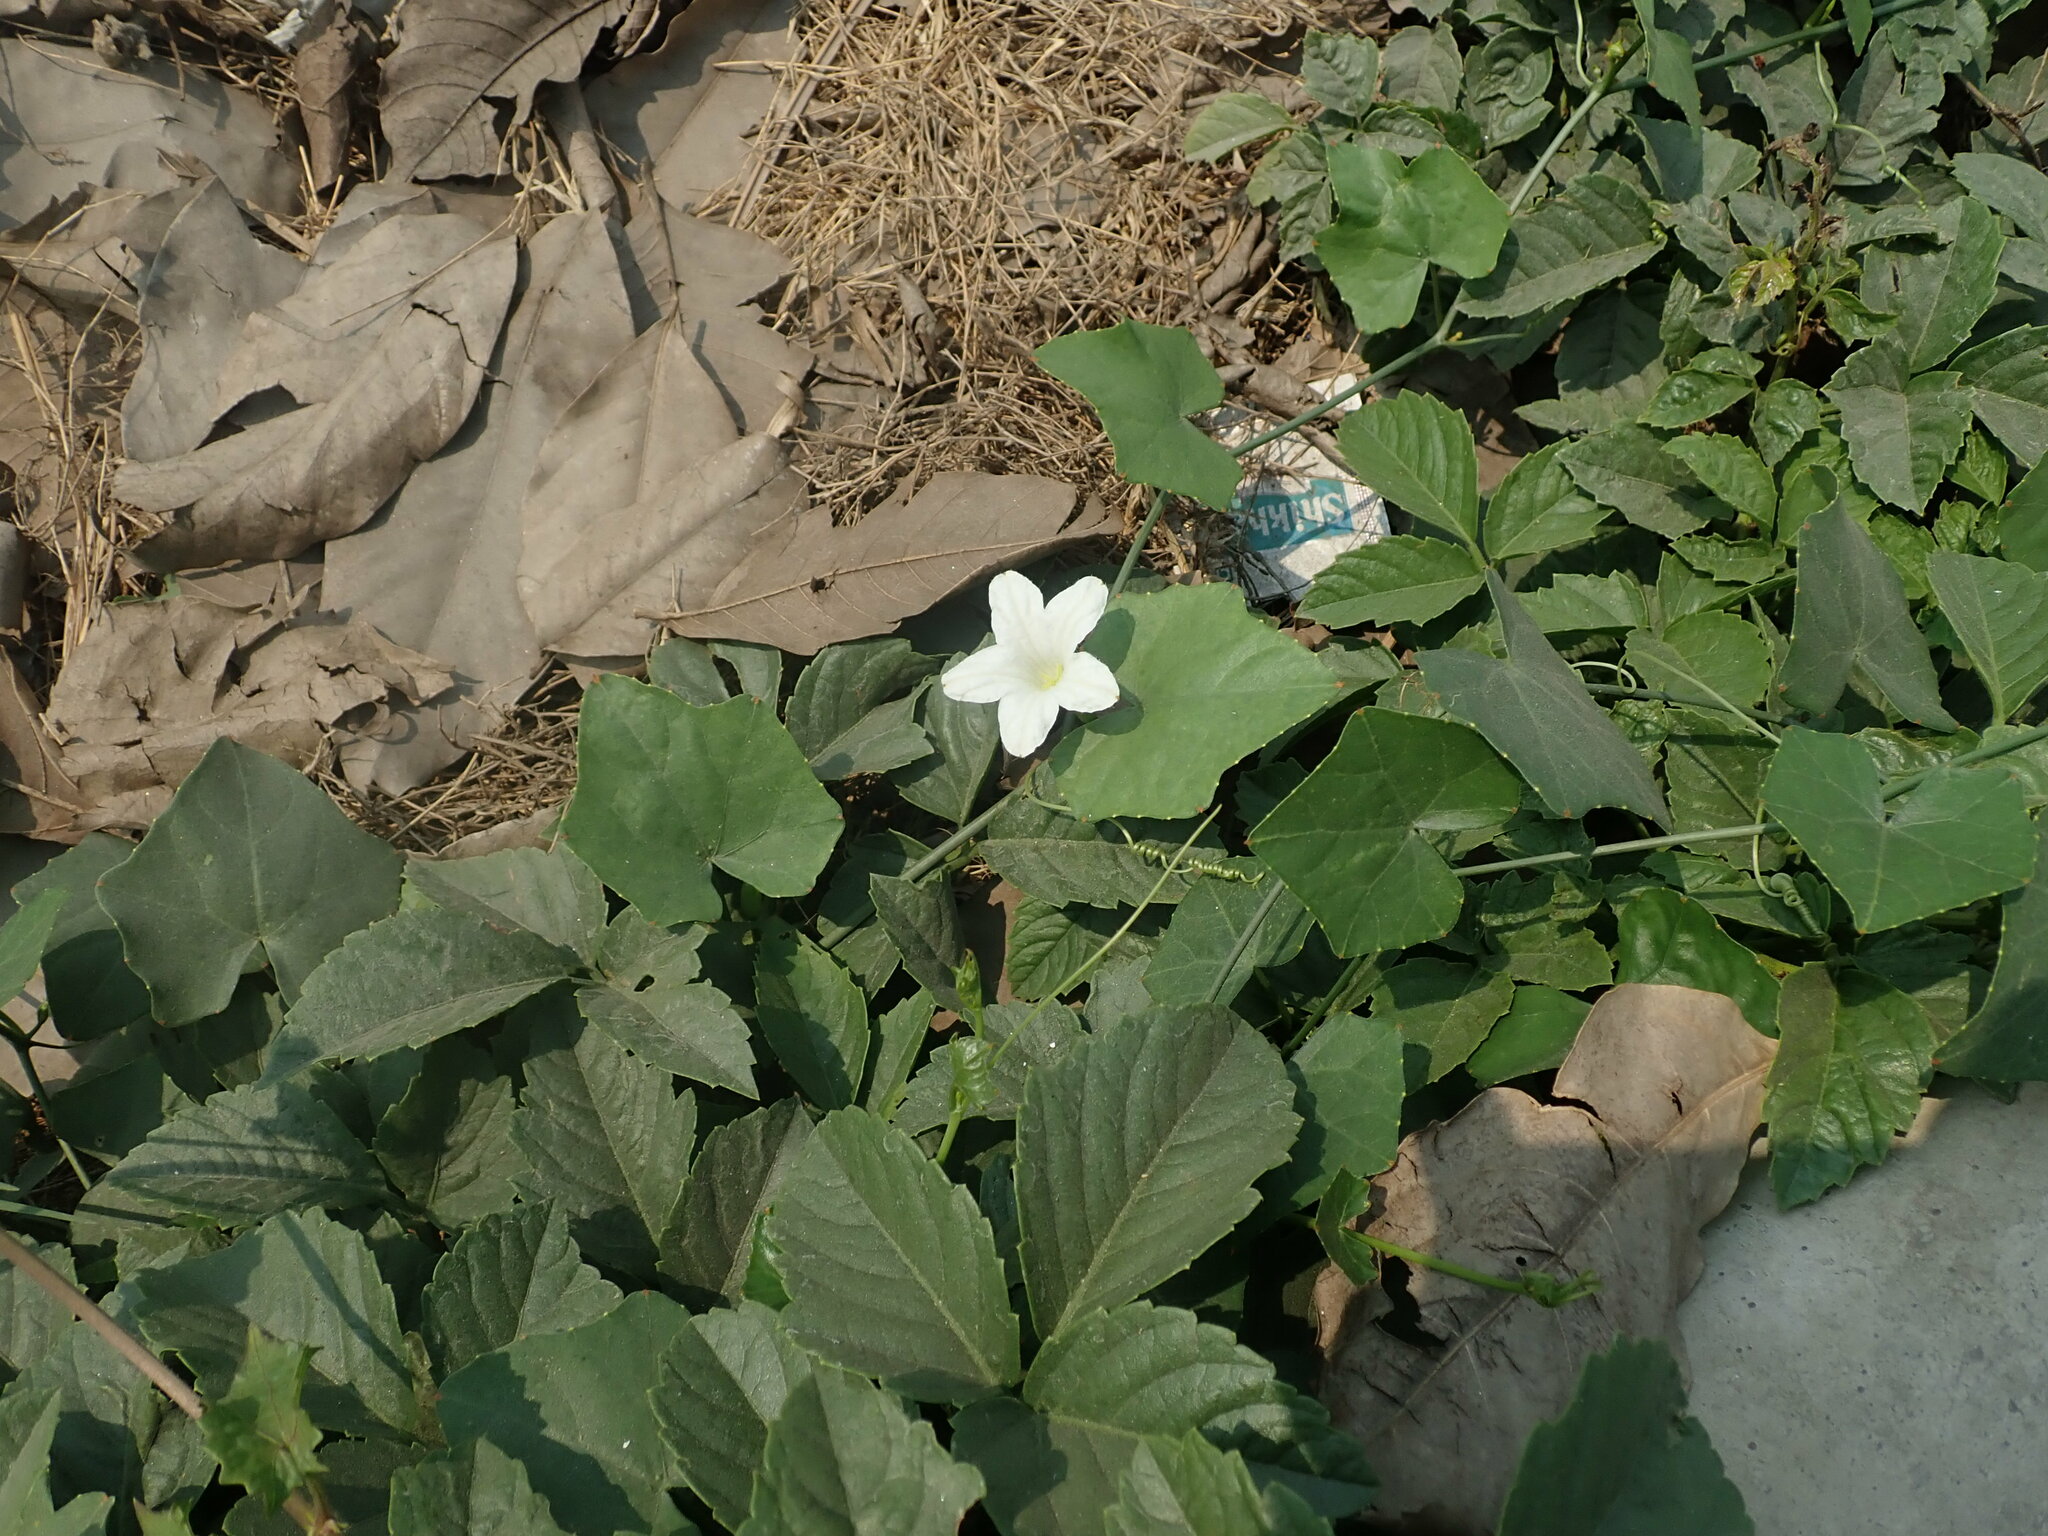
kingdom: Plantae
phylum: Tracheophyta
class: Magnoliopsida
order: Cucurbitales
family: Cucurbitaceae
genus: Coccinia
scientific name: Coccinia grandis
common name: Ivy gourd
